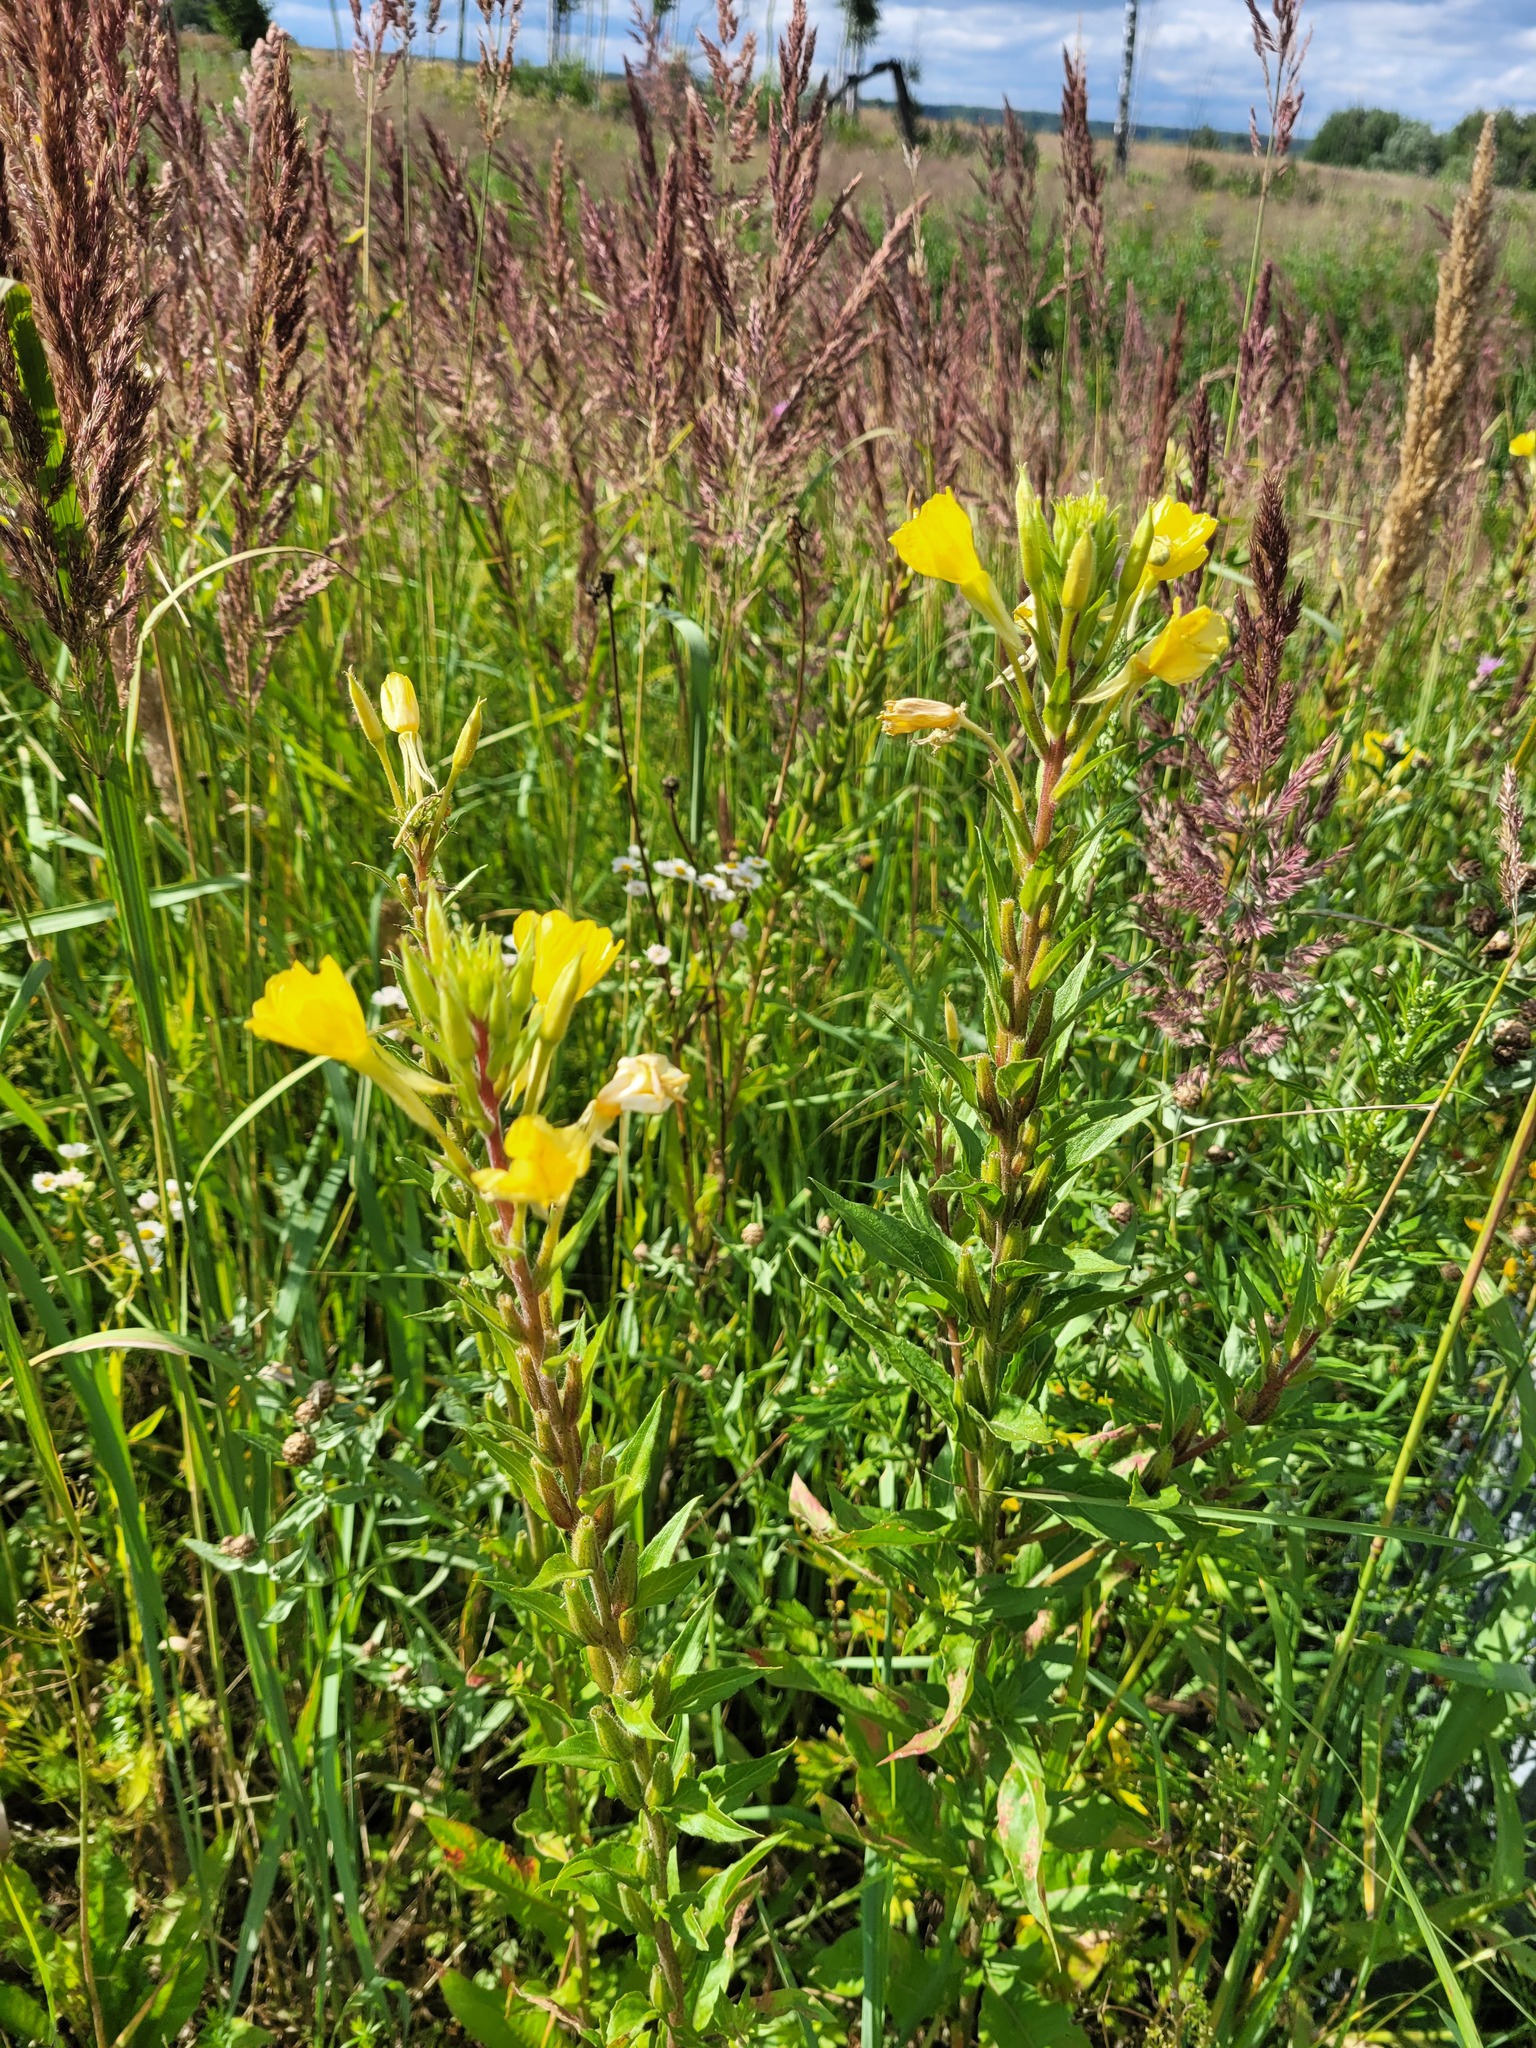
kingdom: Plantae
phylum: Tracheophyta
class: Magnoliopsida
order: Myrtales
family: Onagraceae
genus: Oenothera
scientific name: Oenothera rubricaulis
